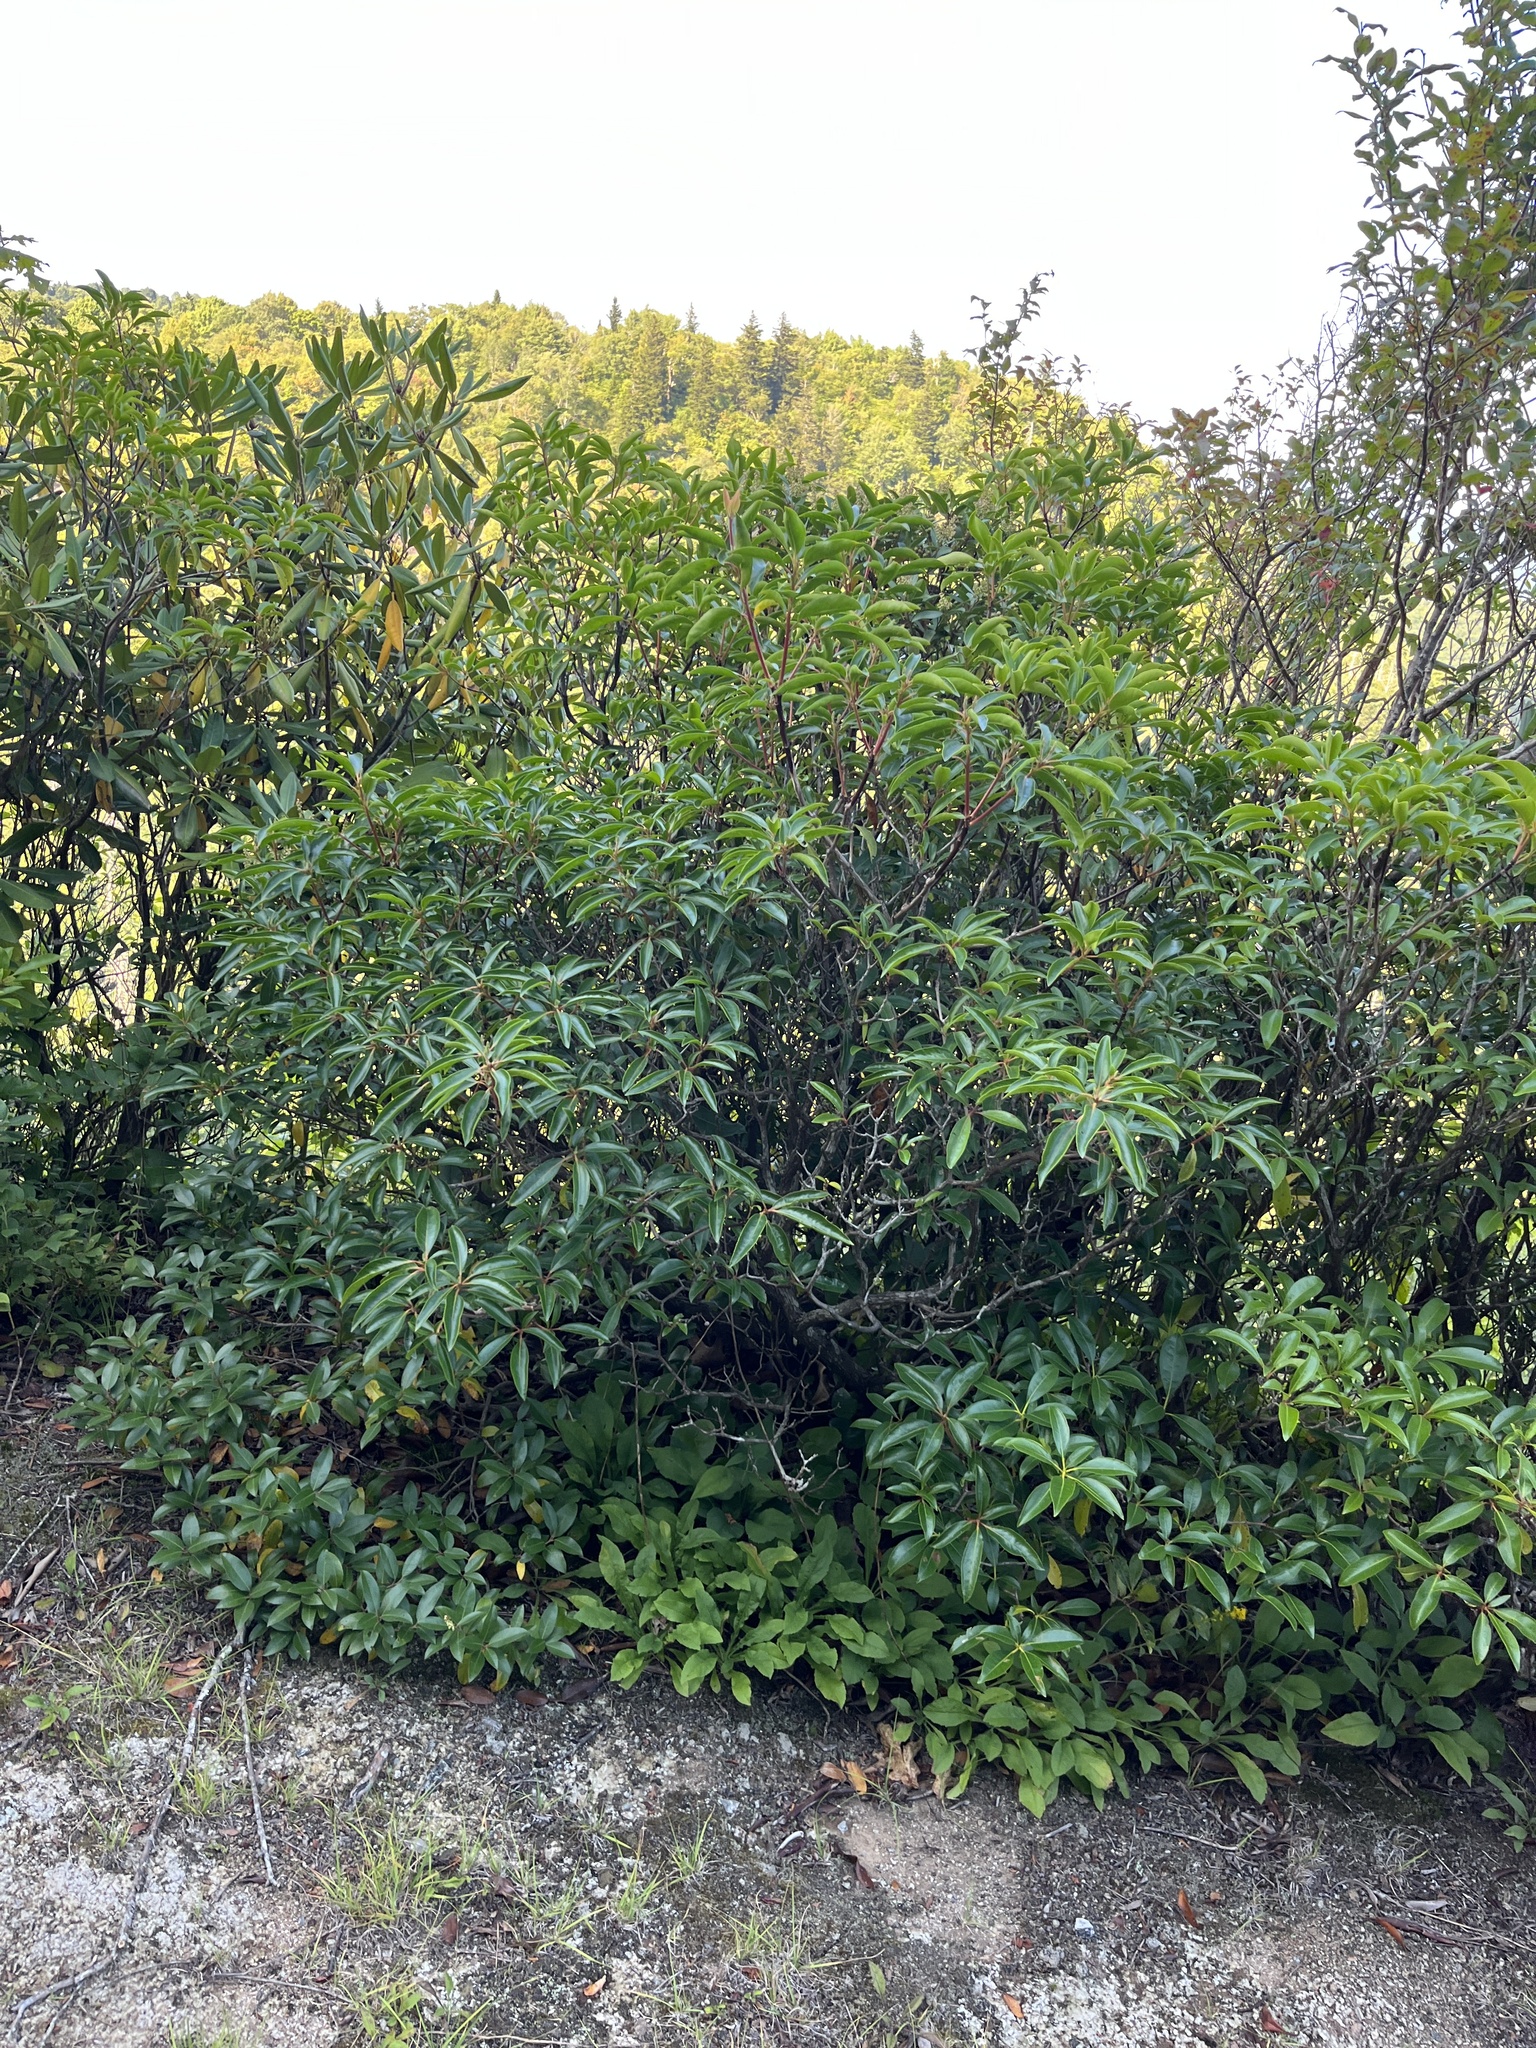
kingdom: Plantae
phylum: Tracheophyta
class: Magnoliopsida
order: Ericales
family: Ericaceae
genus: Kalmia
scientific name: Kalmia latifolia
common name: Mountain-laurel
